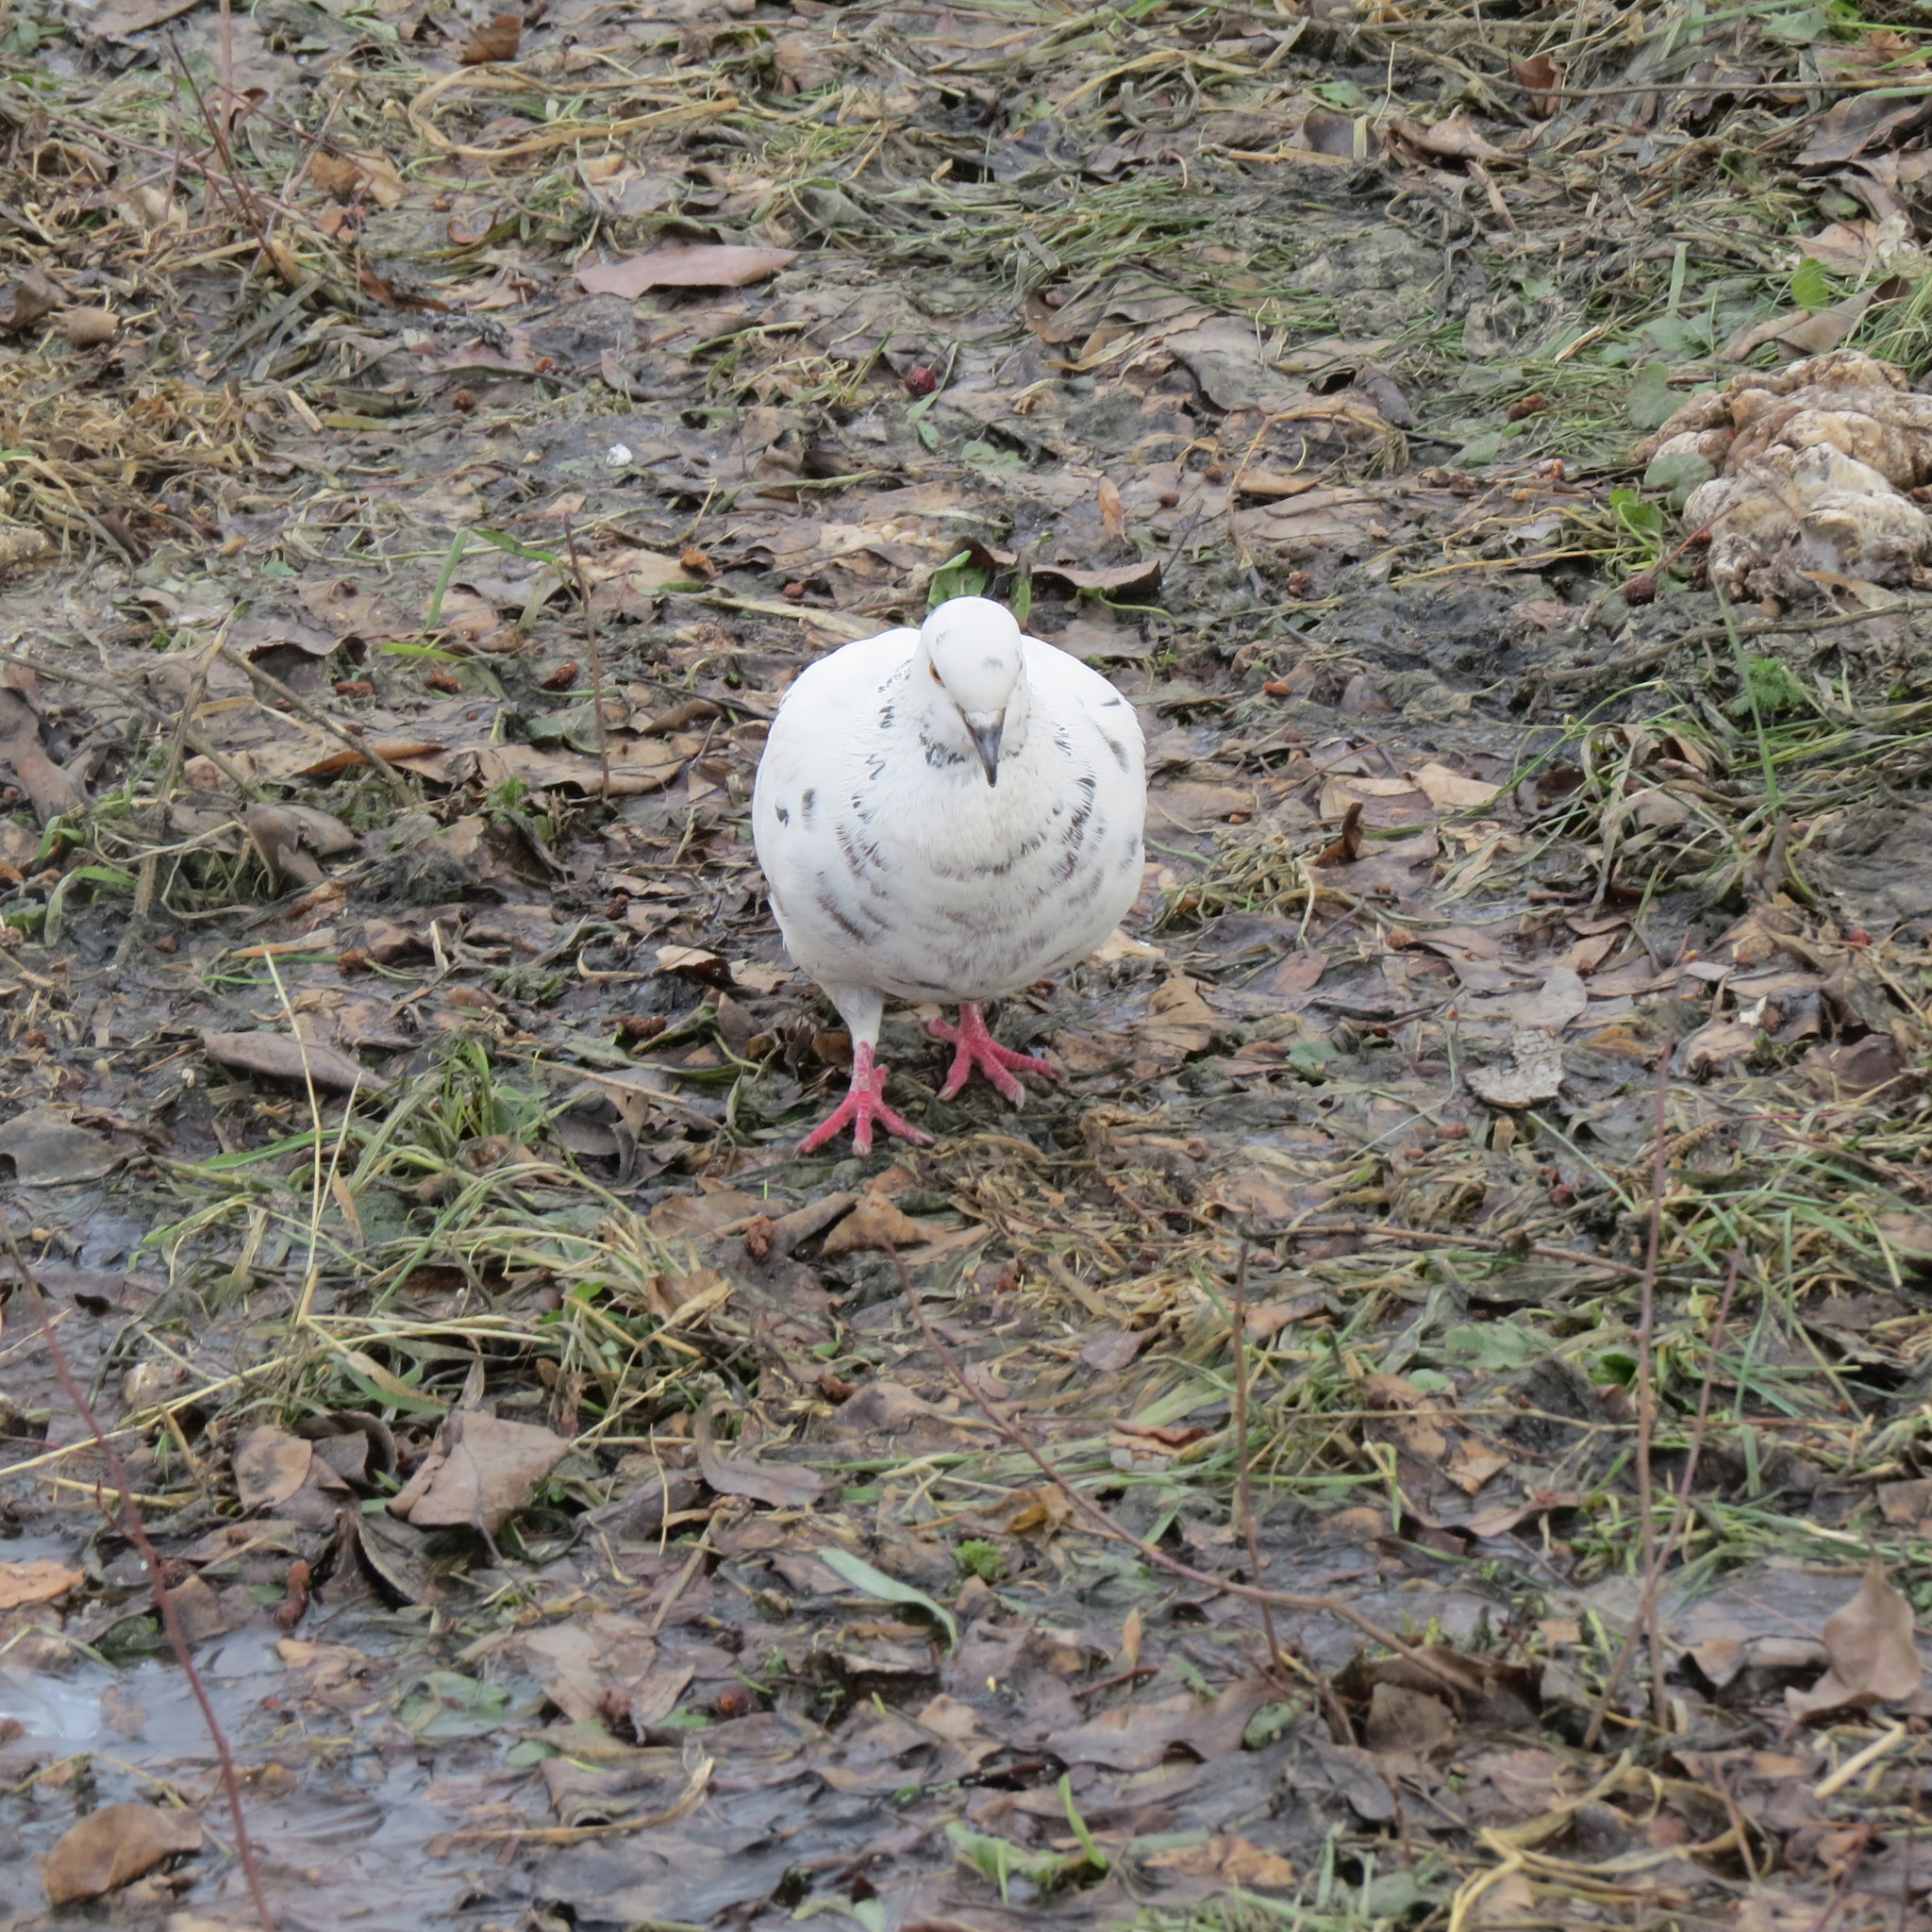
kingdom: Animalia
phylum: Chordata
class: Aves
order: Columbiformes
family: Columbidae
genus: Columba
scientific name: Columba livia
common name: Rock pigeon
